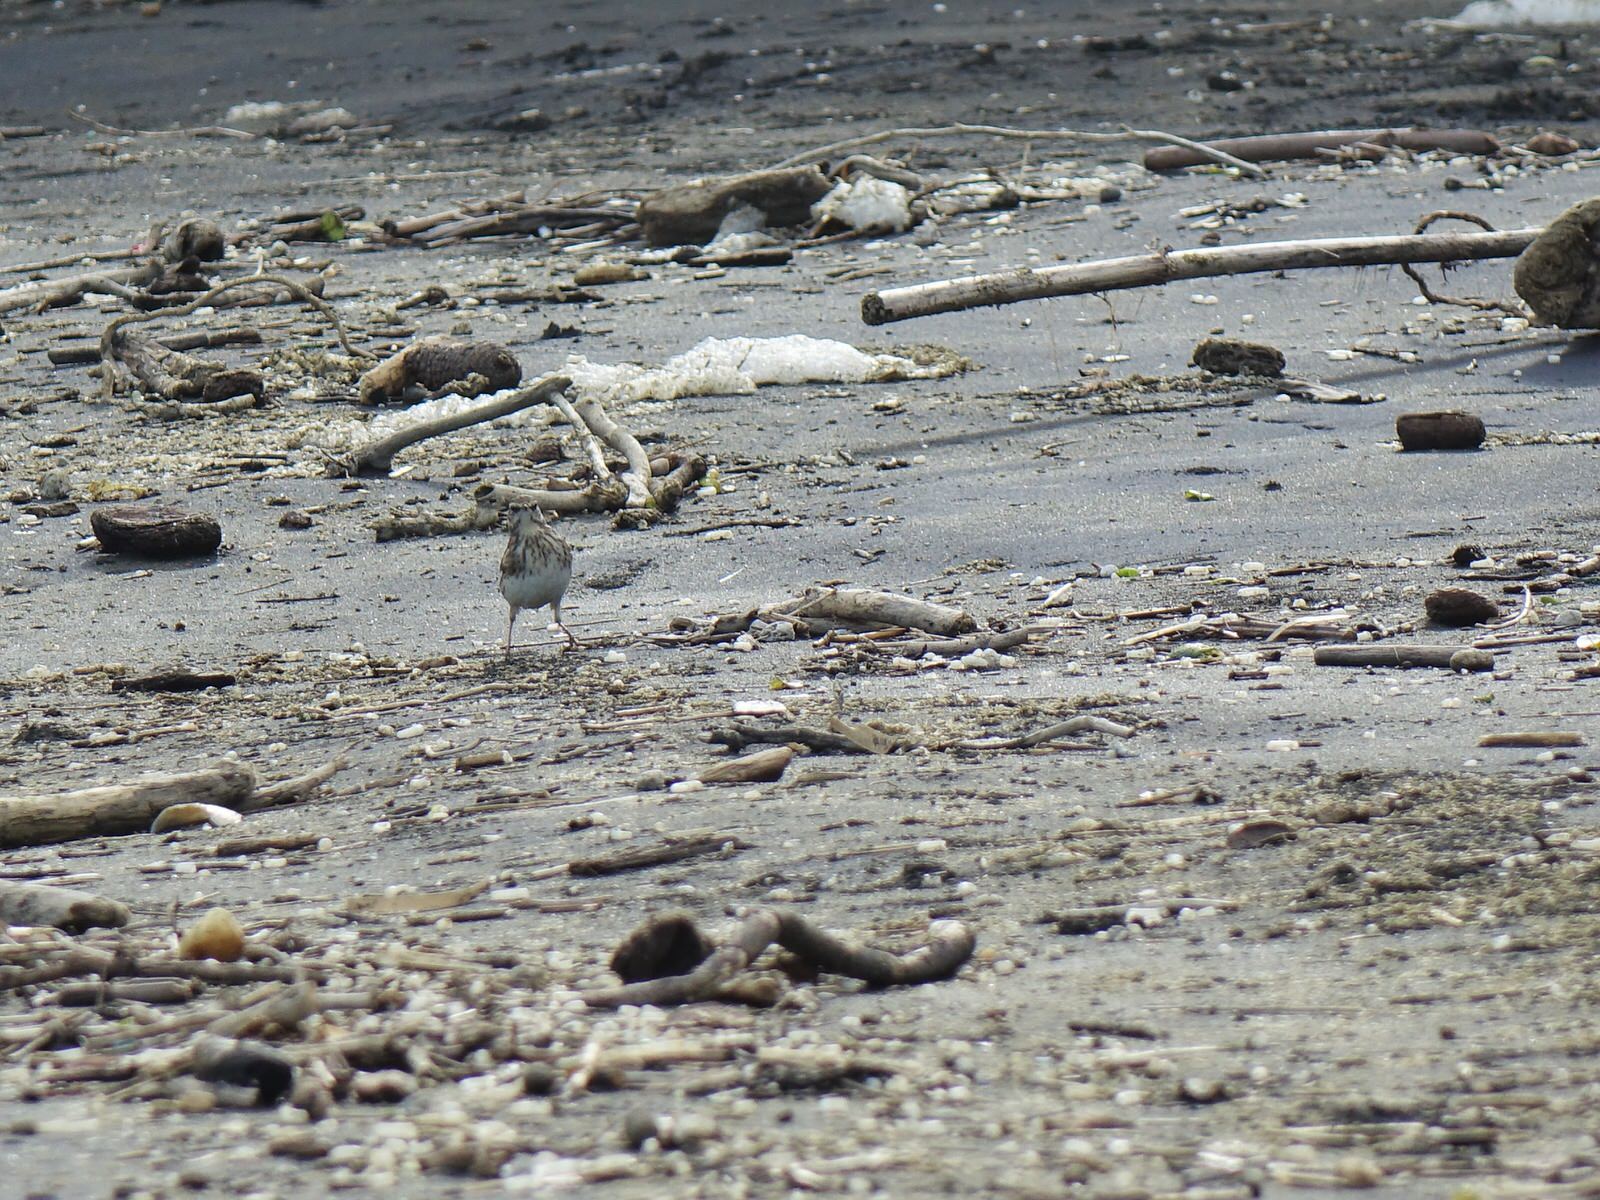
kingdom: Animalia
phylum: Chordata
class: Aves
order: Passeriformes
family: Motacillidae
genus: Anthus
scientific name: Anthus novaeseelandiae
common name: New zealand pipit
